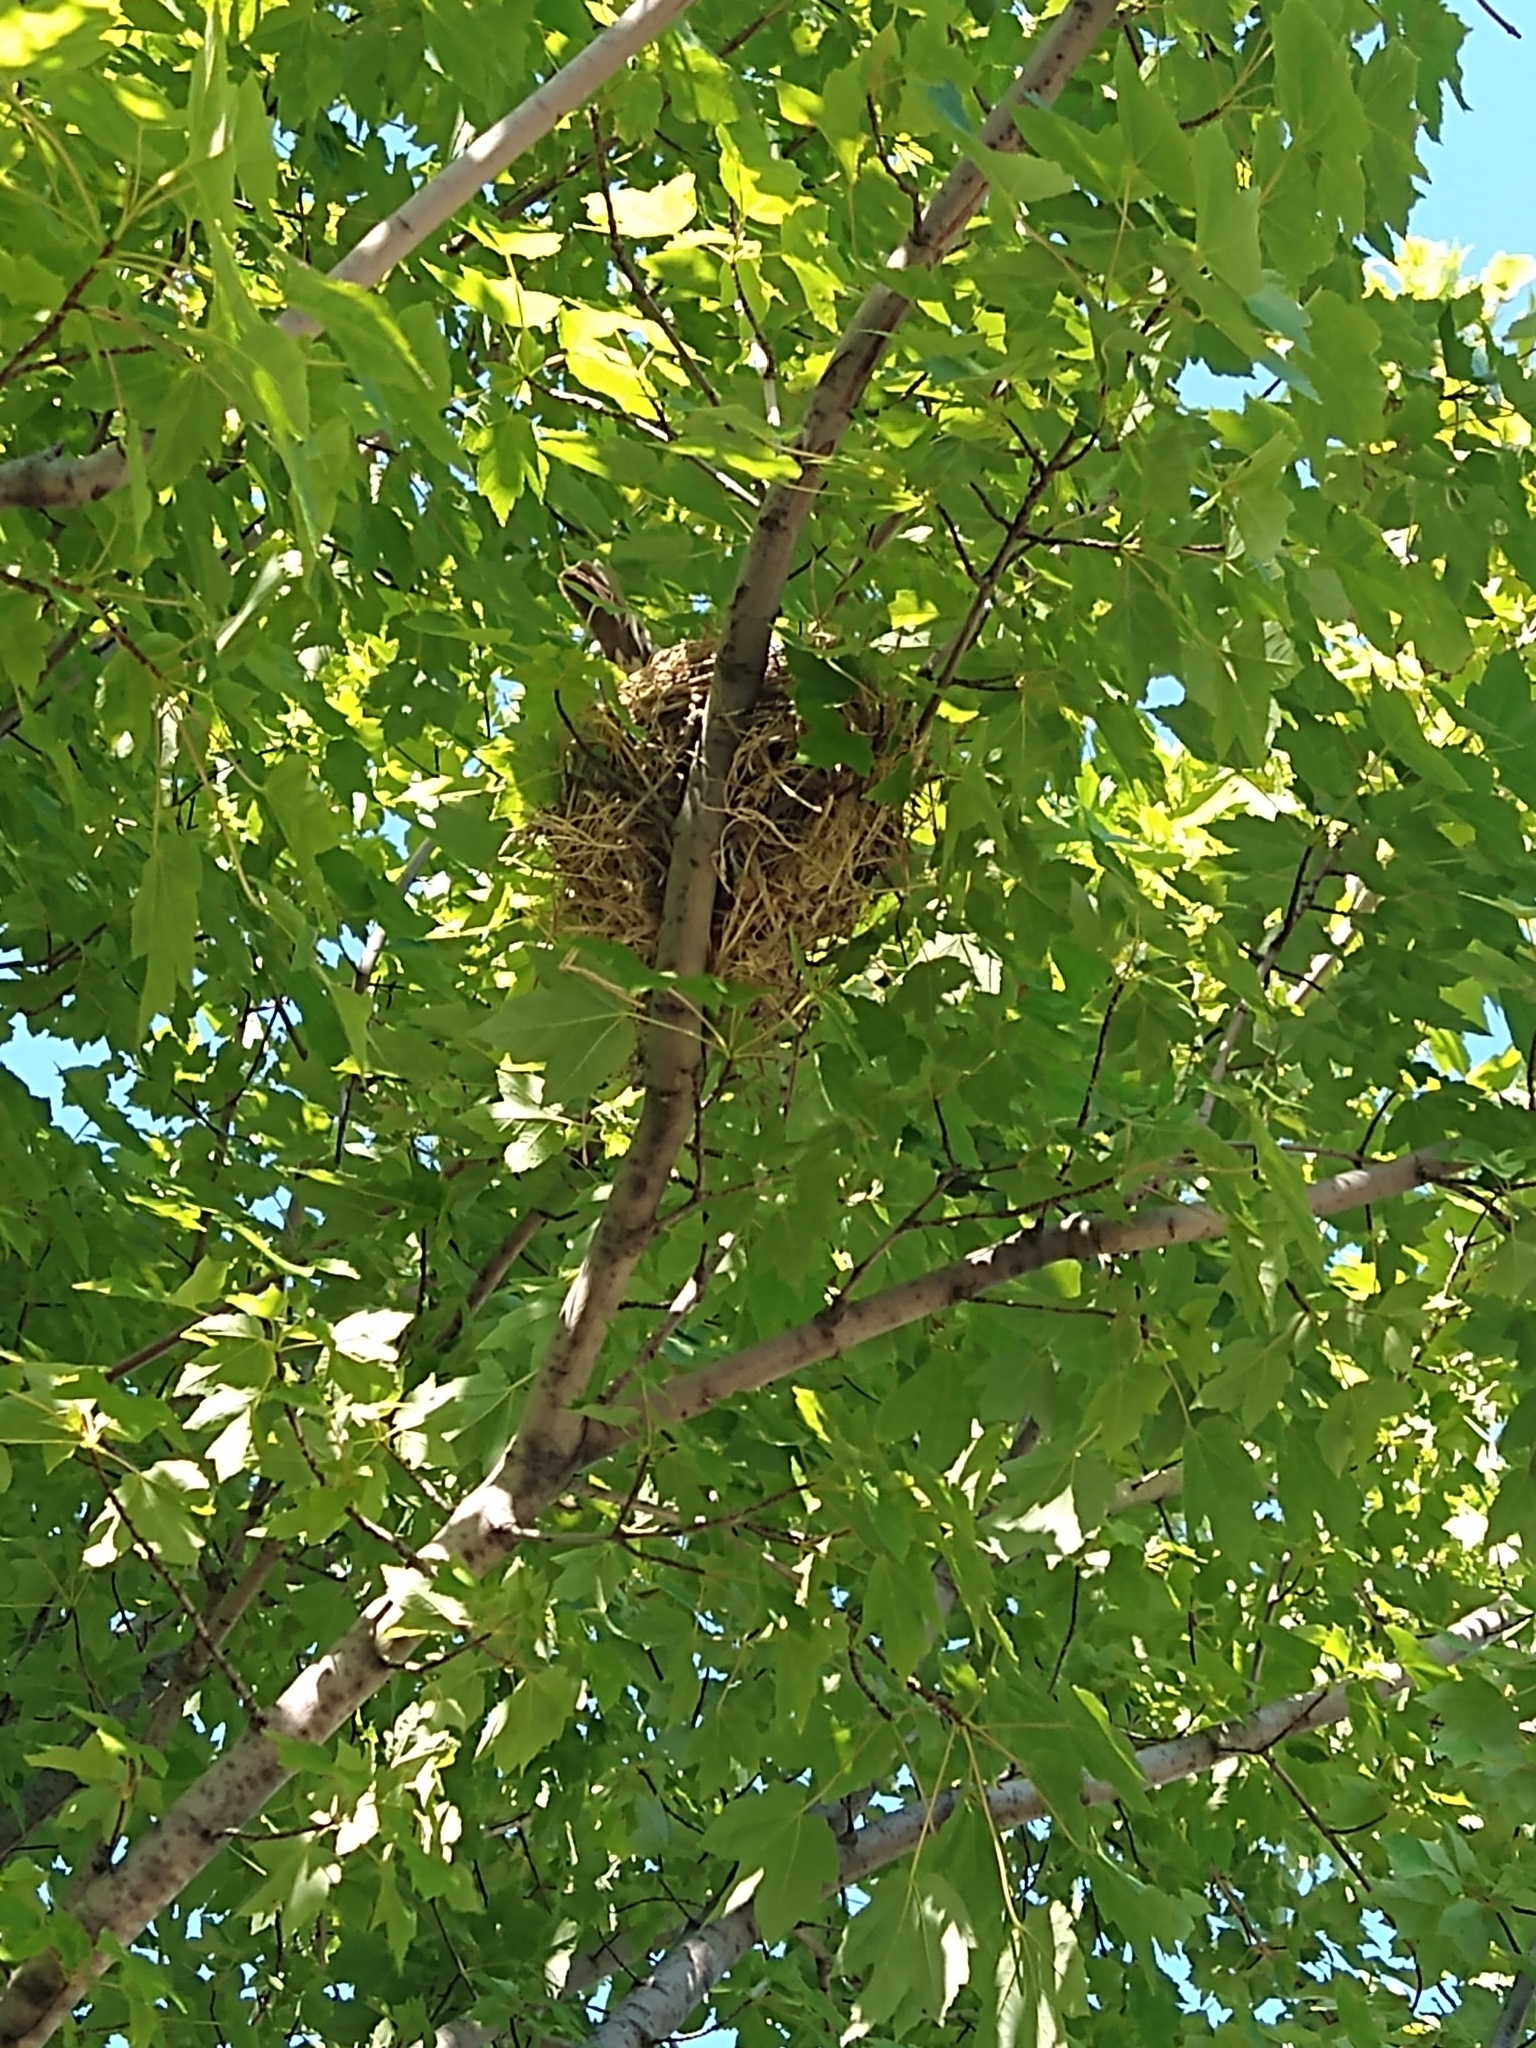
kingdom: Animalia
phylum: Chordata
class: Aves
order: Passeriformes
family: Turdidae
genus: Turdus
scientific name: Turdus migratorius
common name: American robin
